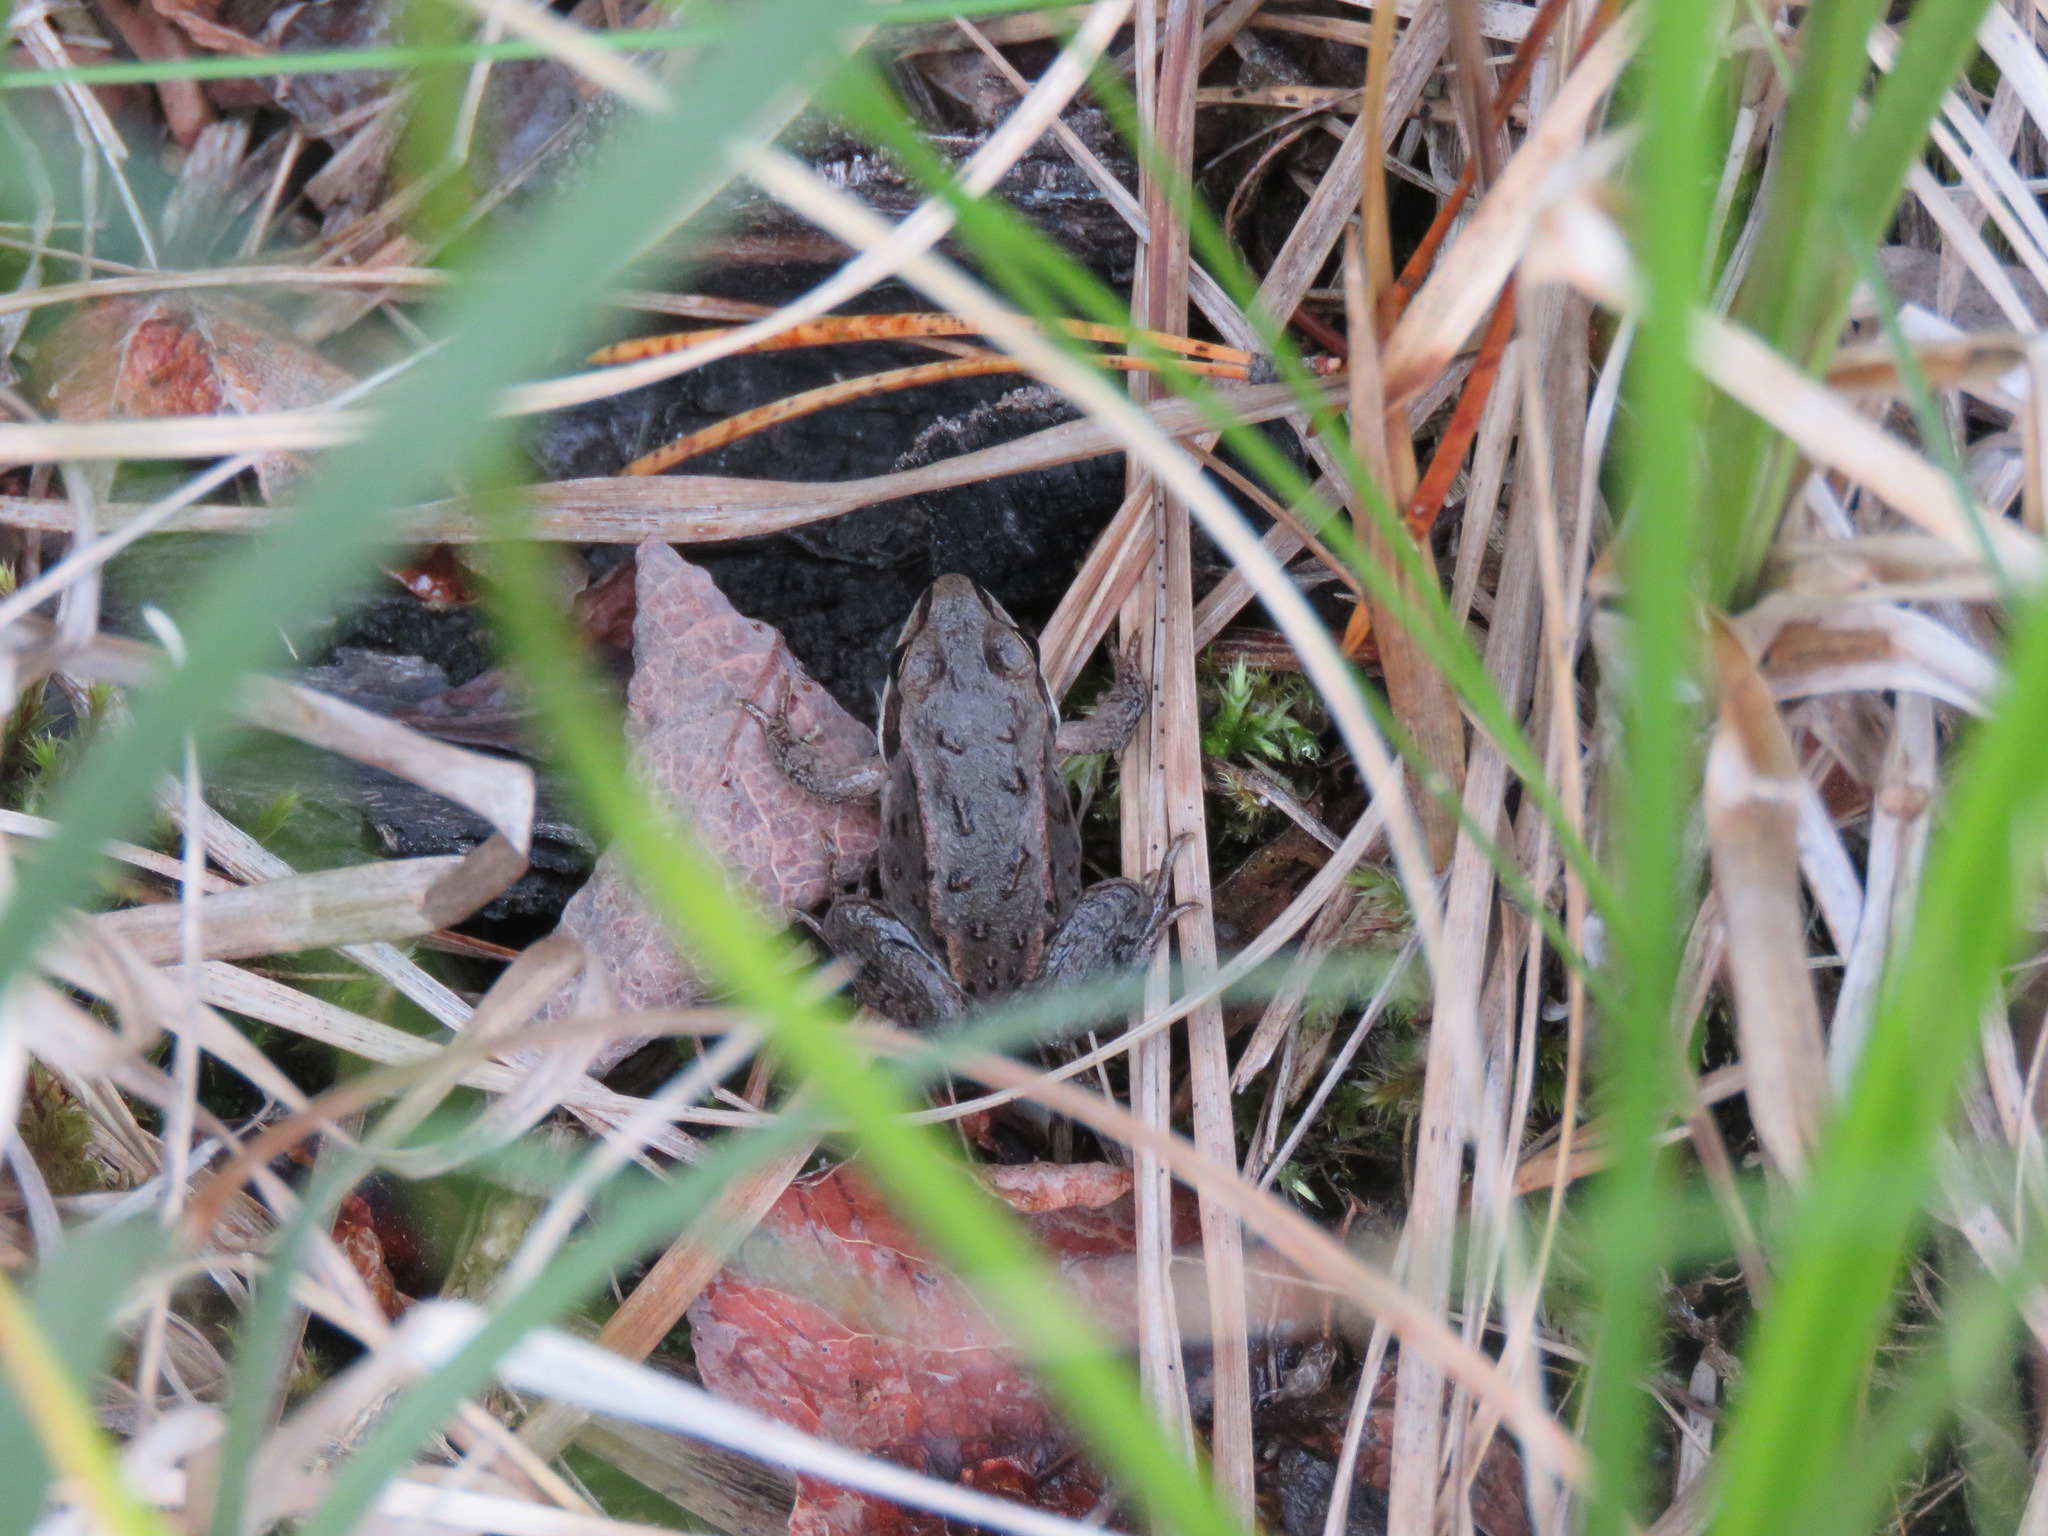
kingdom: Animalia
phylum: Chordata
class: Amphibia
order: Anura
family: Ranidae
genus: Lithobates
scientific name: Lithobates sylvaticus
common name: Wood frog
